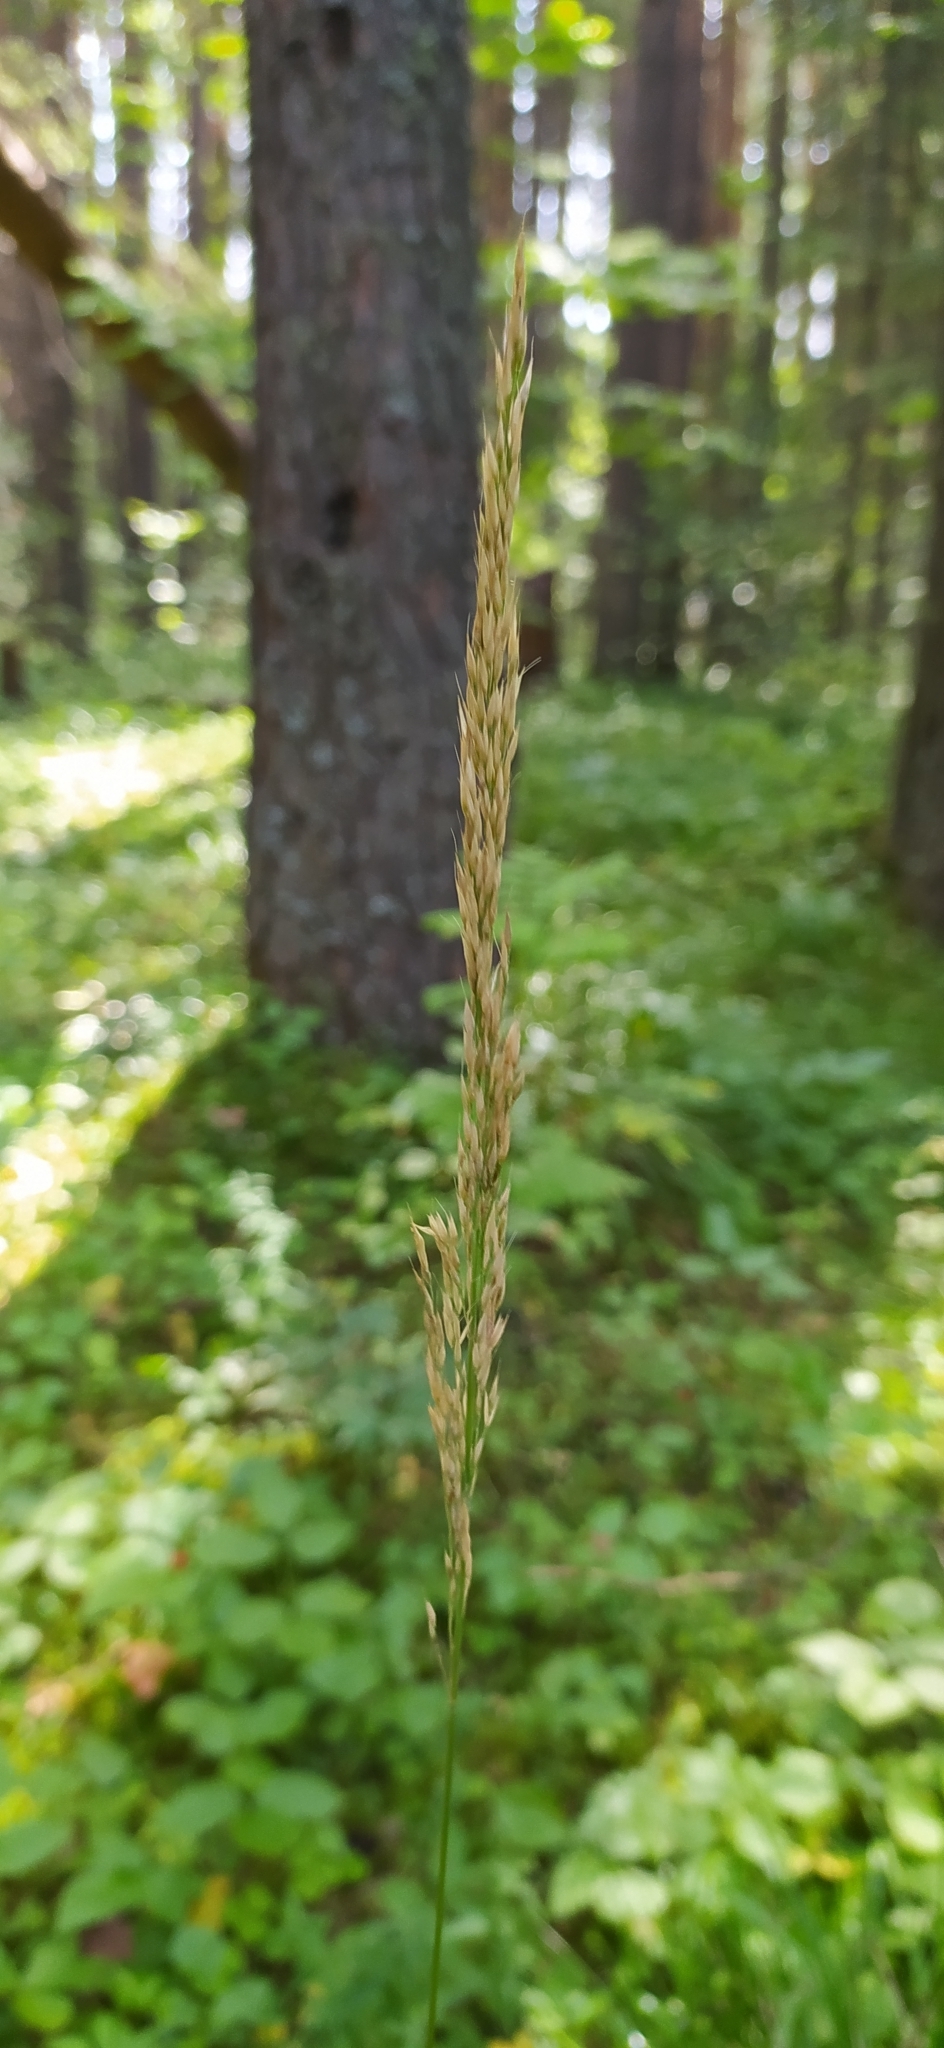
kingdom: Plantae
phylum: Tracheophyta
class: Liliopsida
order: Poales
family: Poaceae
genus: Calamagrostis
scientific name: Calamagrostis arundinacea
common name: Metskastik
